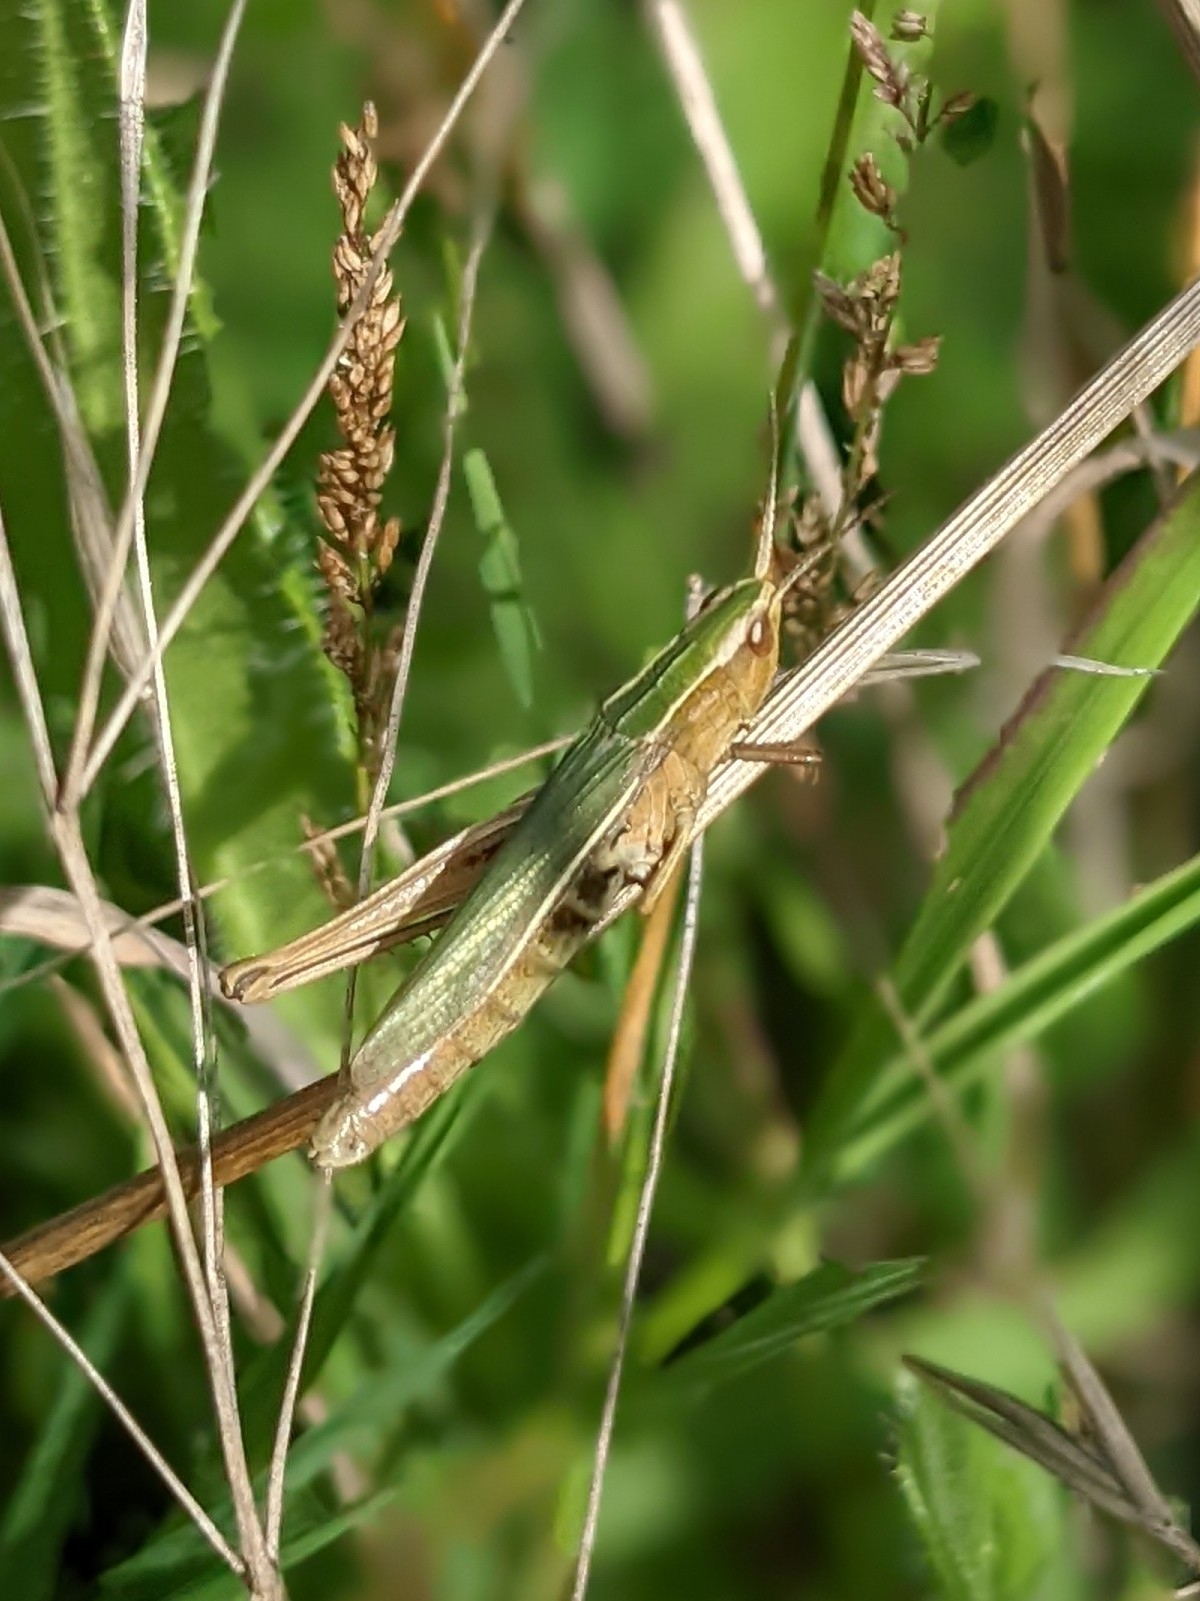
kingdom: Animalia
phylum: Arthropoda
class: Insecta
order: Orthoptera
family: Acrididae
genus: Chorthippus
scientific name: Chorthippus albomarginatus
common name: Lesser marsh grasshopper
